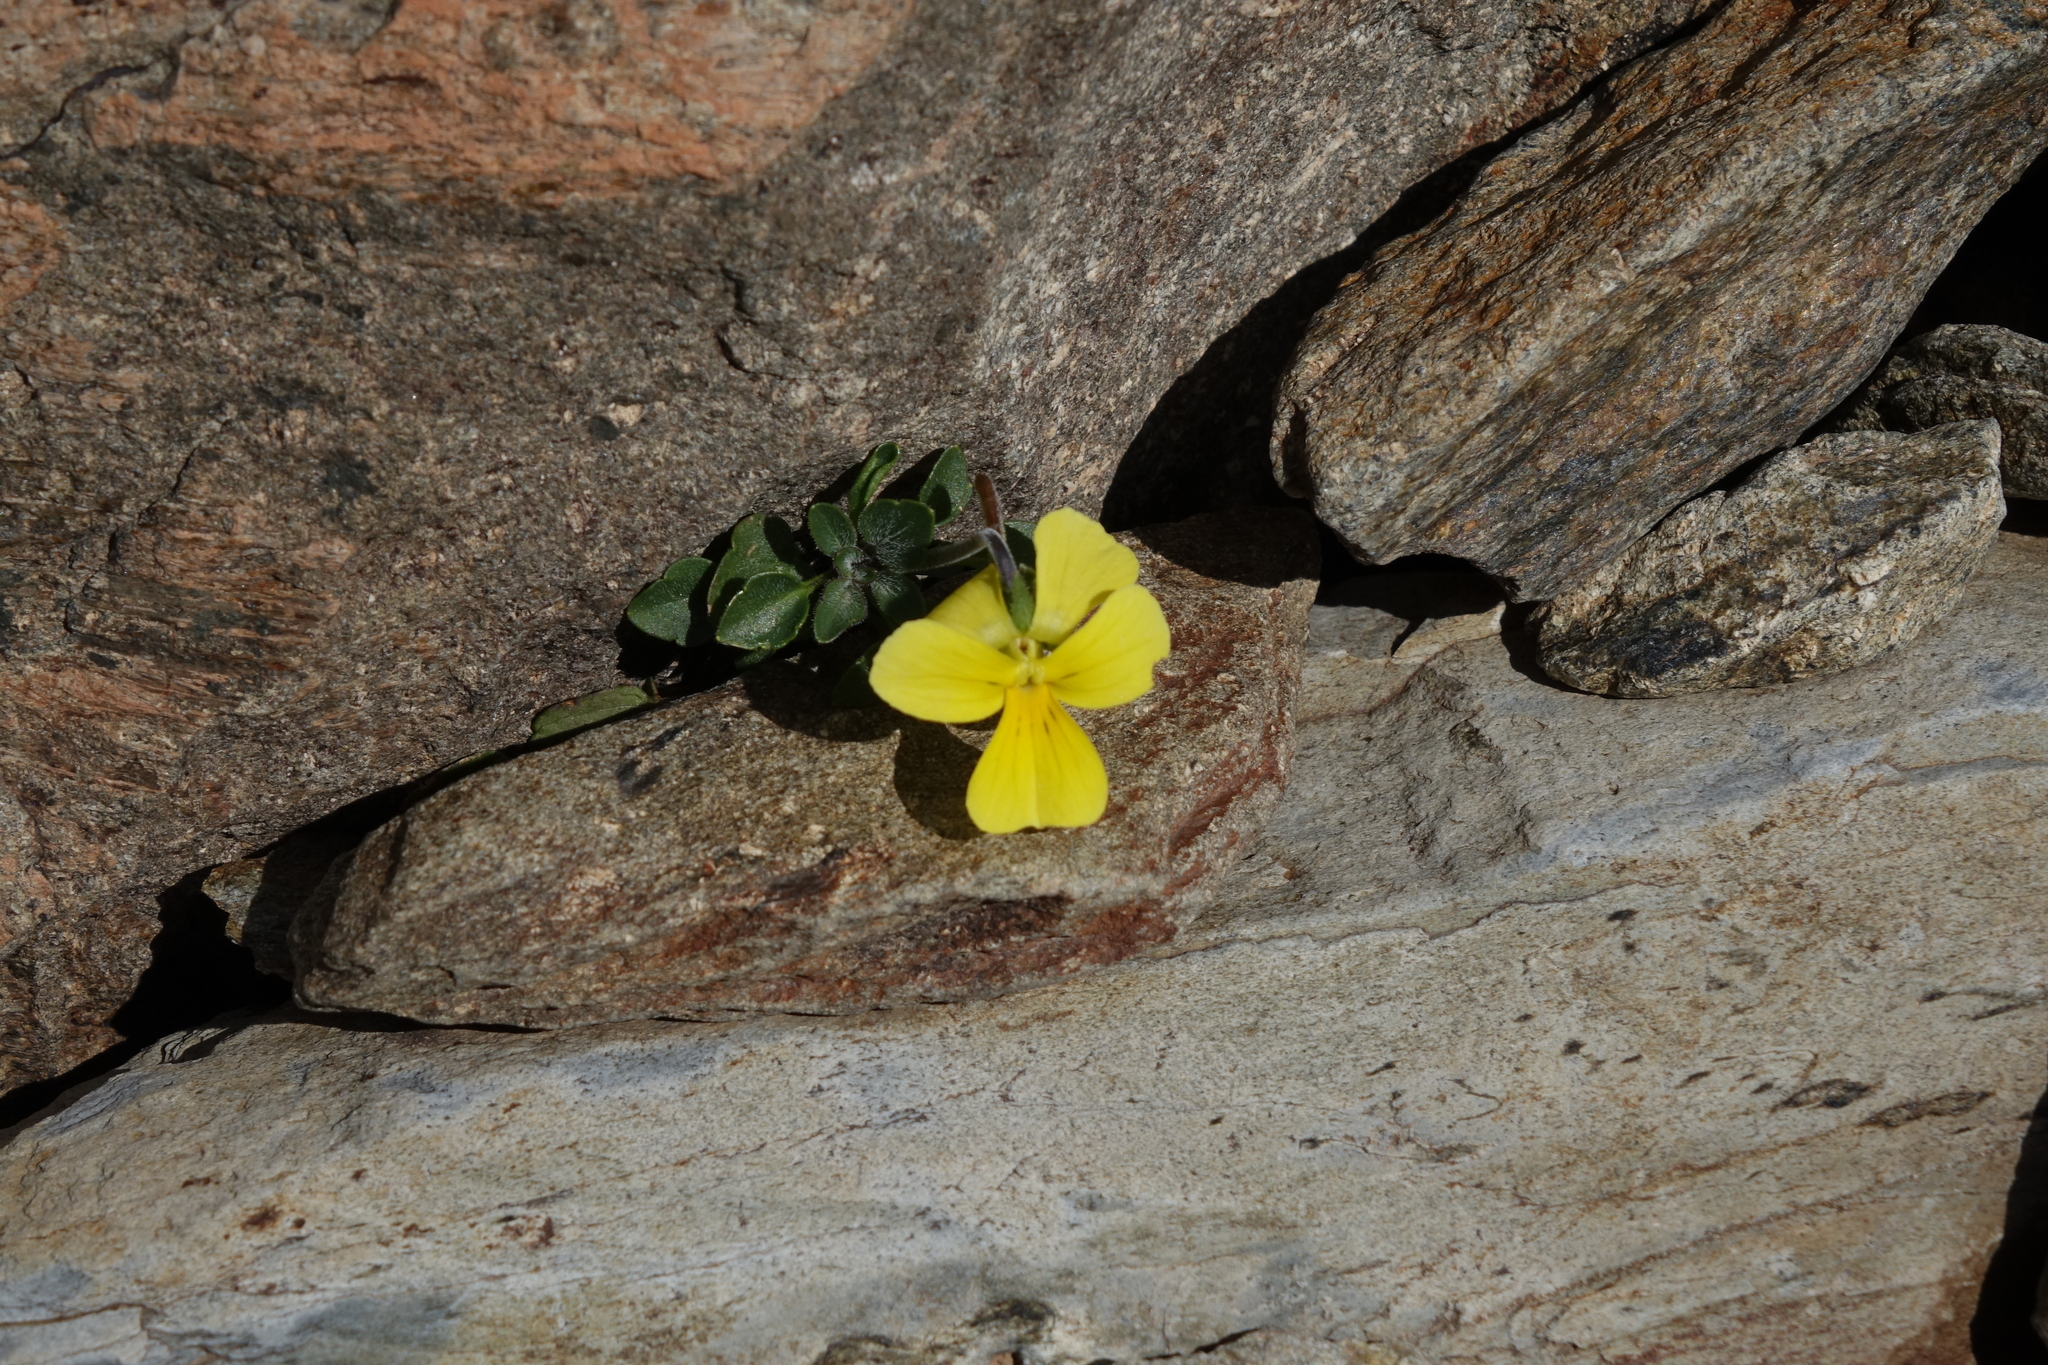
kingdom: Plantae
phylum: Tracheophyta
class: Magnoliopsida
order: Malpighiales
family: Violaceae
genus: Viola
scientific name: Viola minuta
